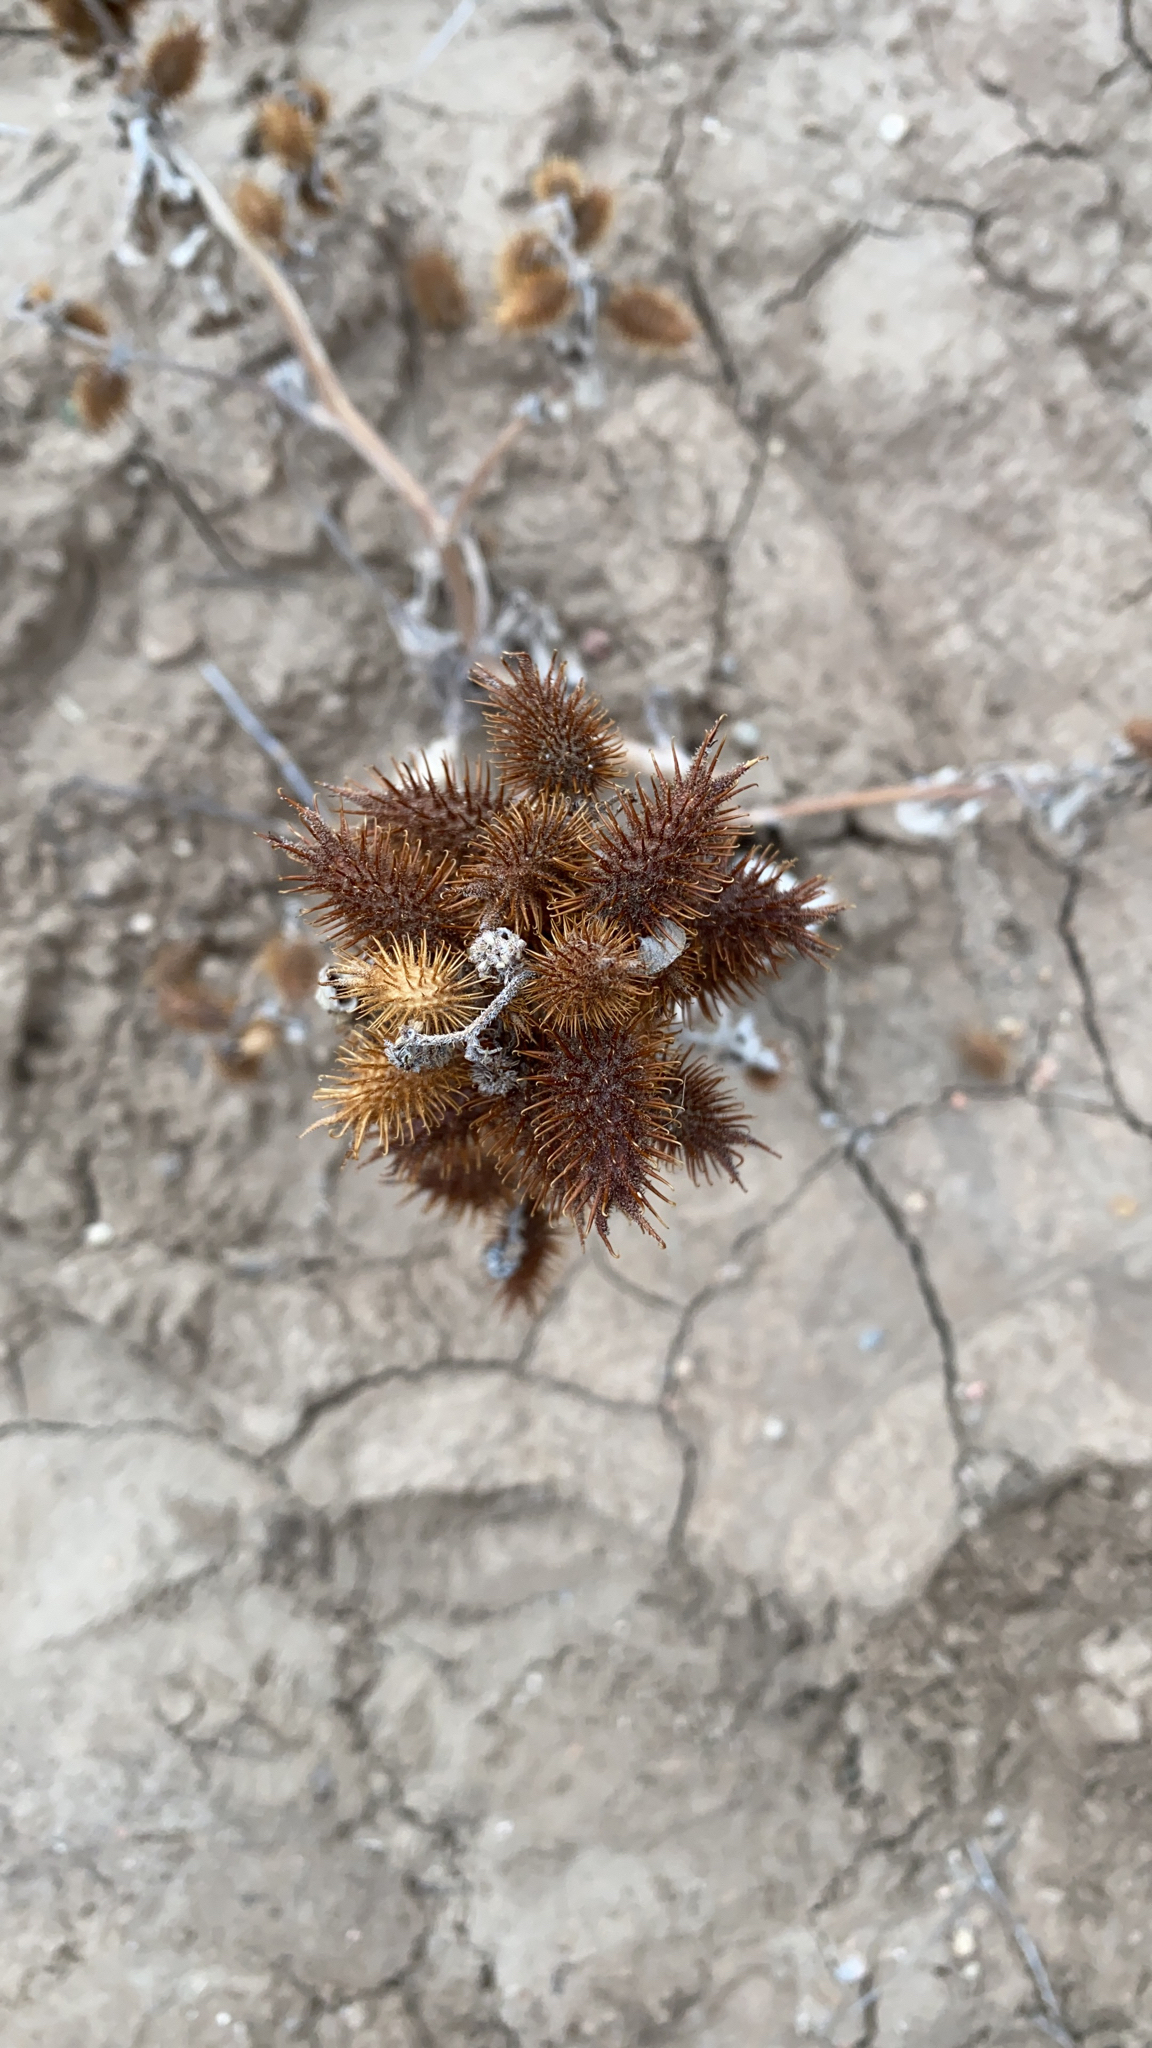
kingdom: Plantae
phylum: Tracheophyta
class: Magnoliopsida
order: Asterales
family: Asteraceae
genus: Xanthium
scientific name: Xanthium strumarium
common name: Rough cocklebur
